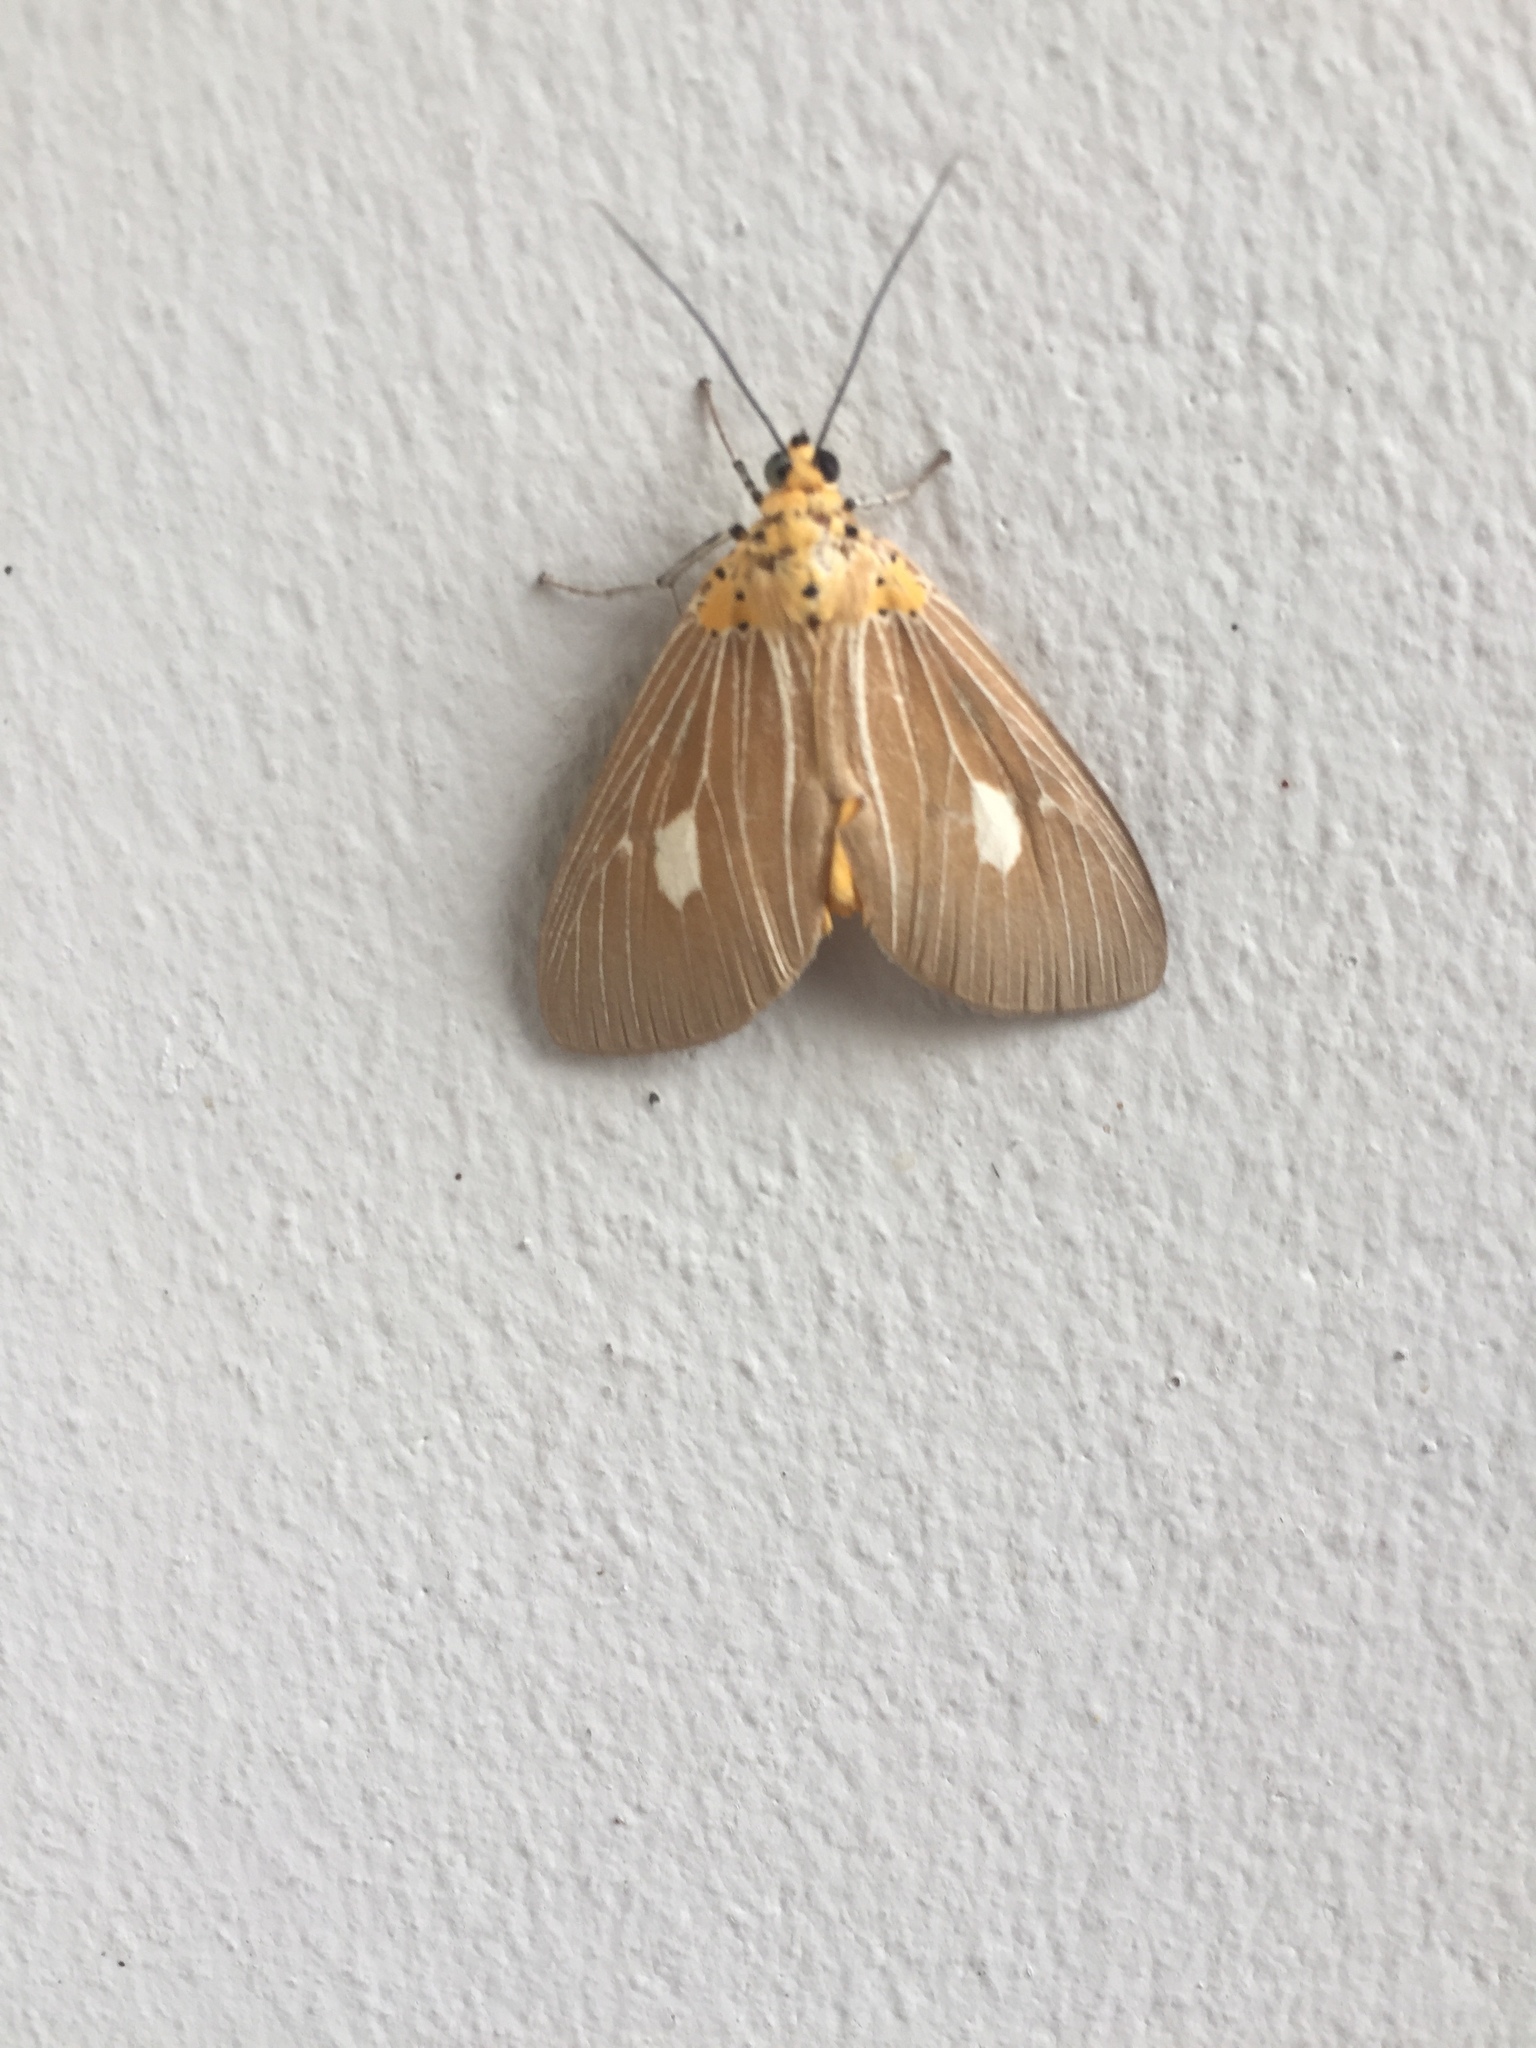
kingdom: Animalia
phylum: Arthropoda
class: Insecta
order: Lepidoptera
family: Erebidae
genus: Asota
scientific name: Asota plaginota
